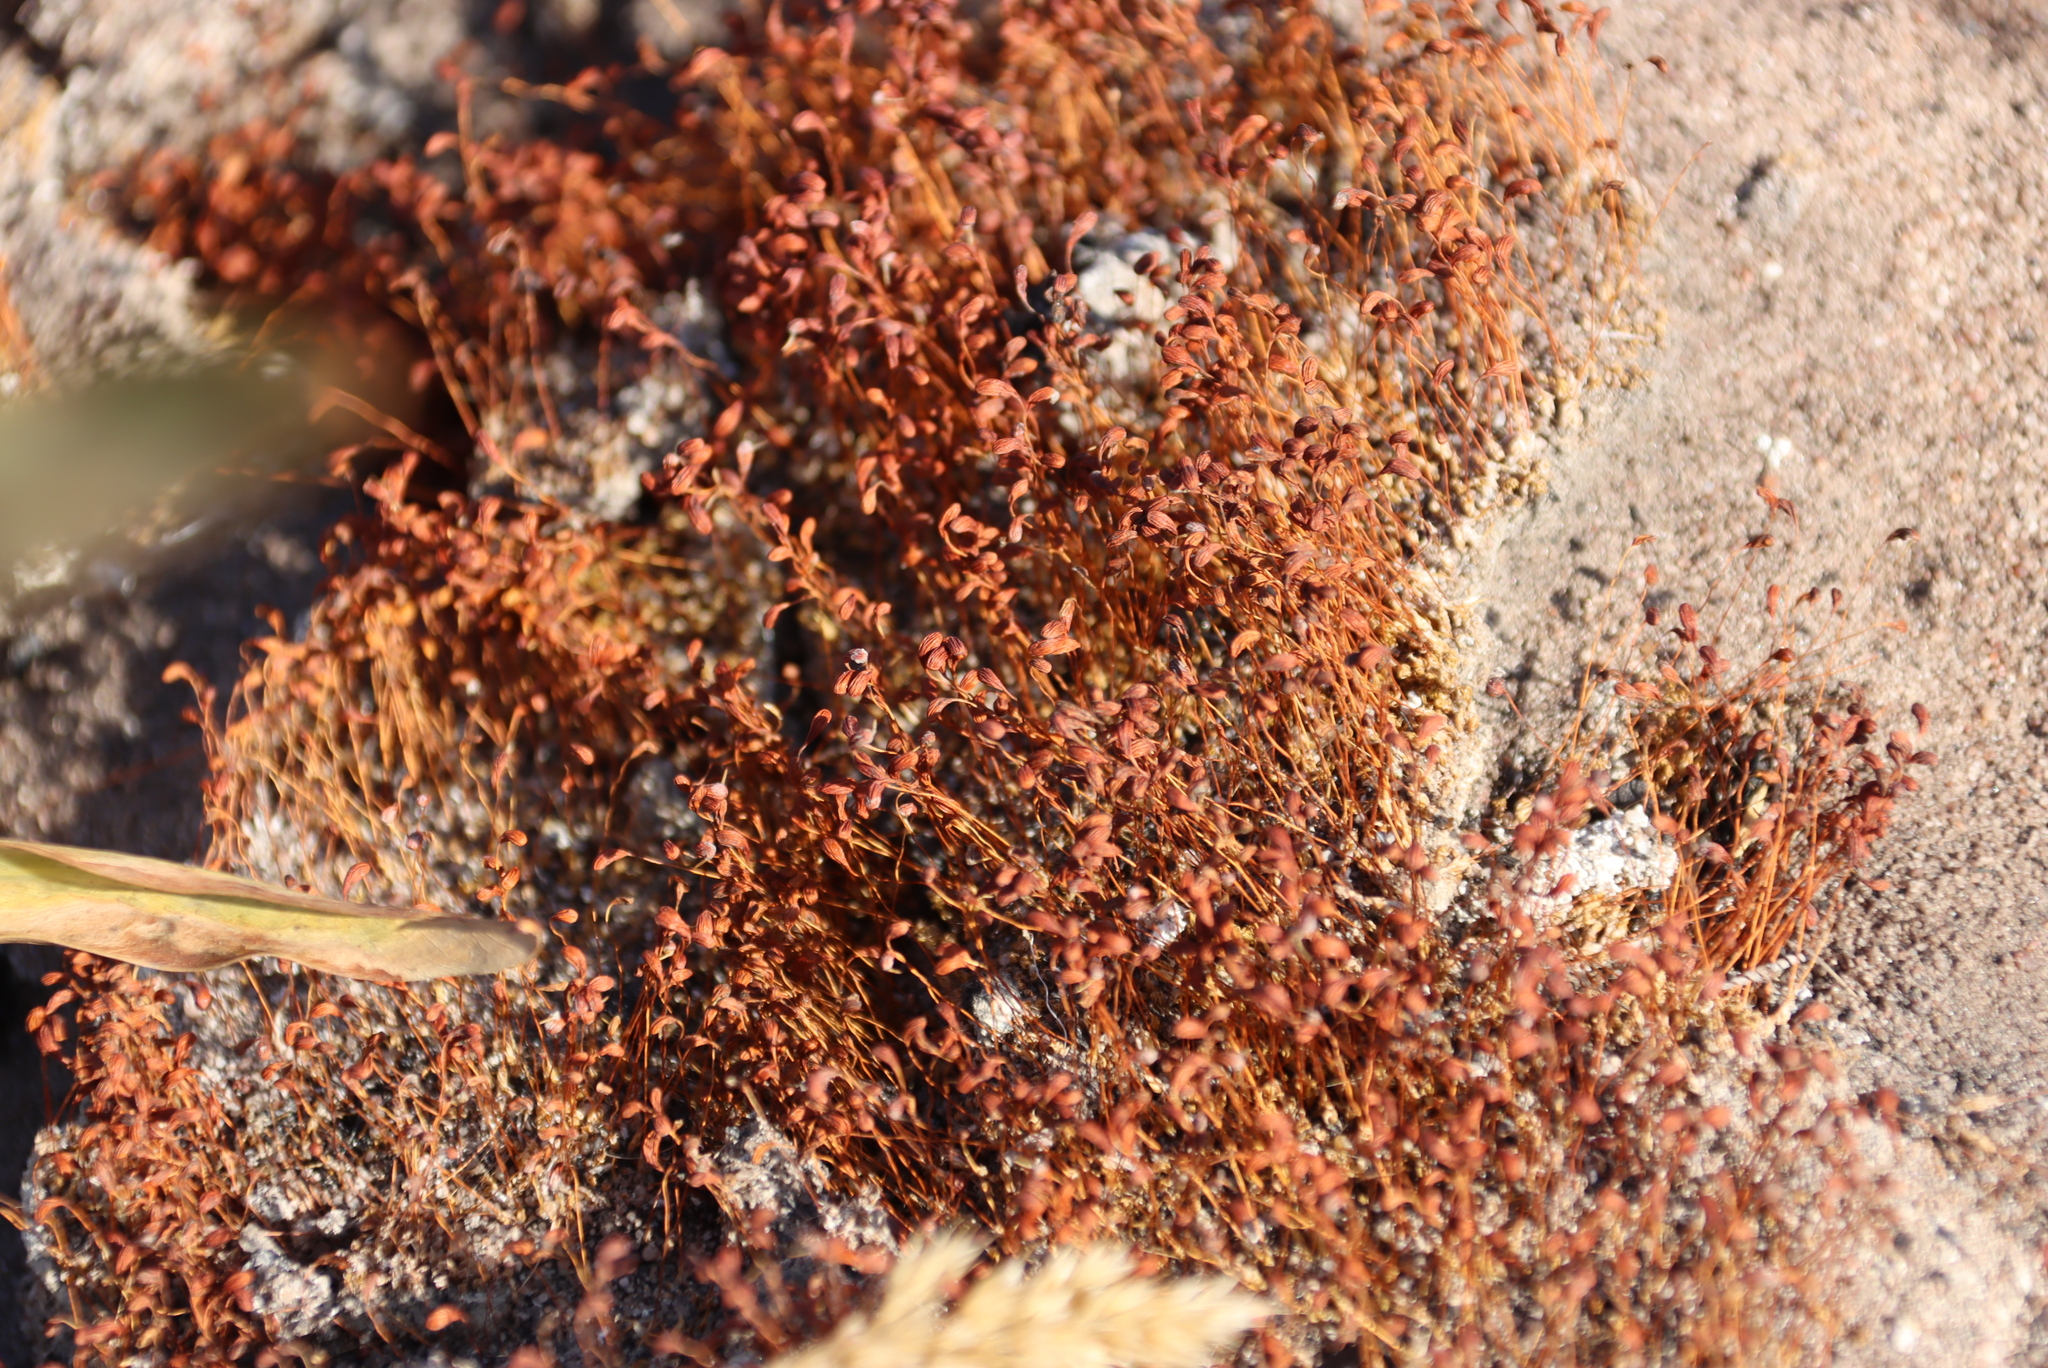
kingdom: Plantae
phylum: Bryophyta
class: Bryopsida
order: Funariales
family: Funariaceae
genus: Funaria
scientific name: Funaria hygrometrica
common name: Common cord moss
